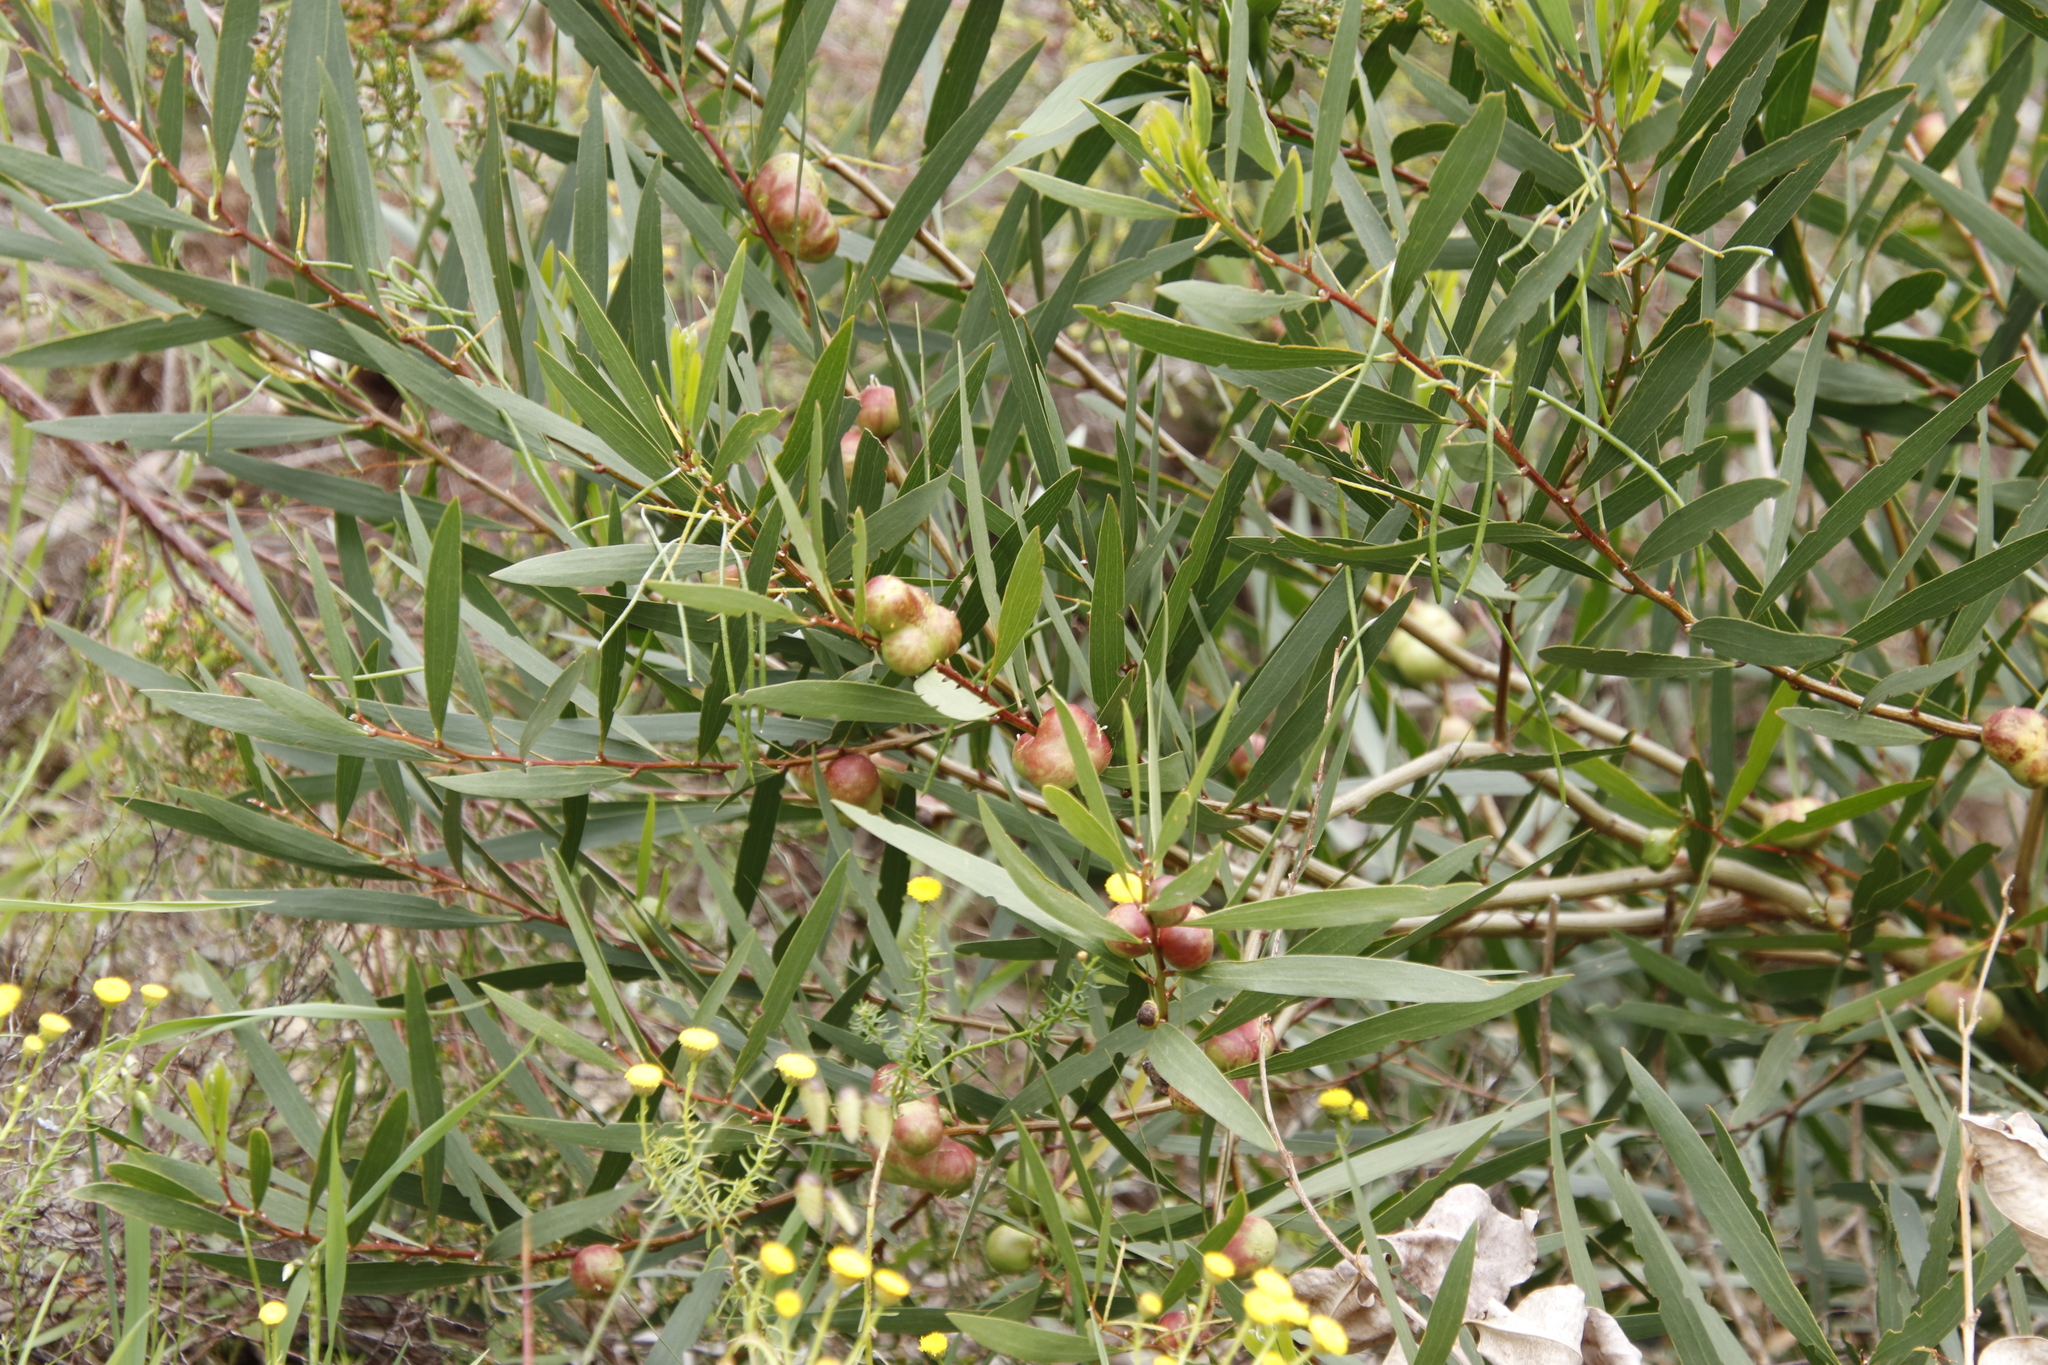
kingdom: Animalia
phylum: Arthropoda
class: Insecta
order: Hymenoptera
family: Pteromalidae
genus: Trichilogaster
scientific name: Trichilogaster acaciaelongifoliae
